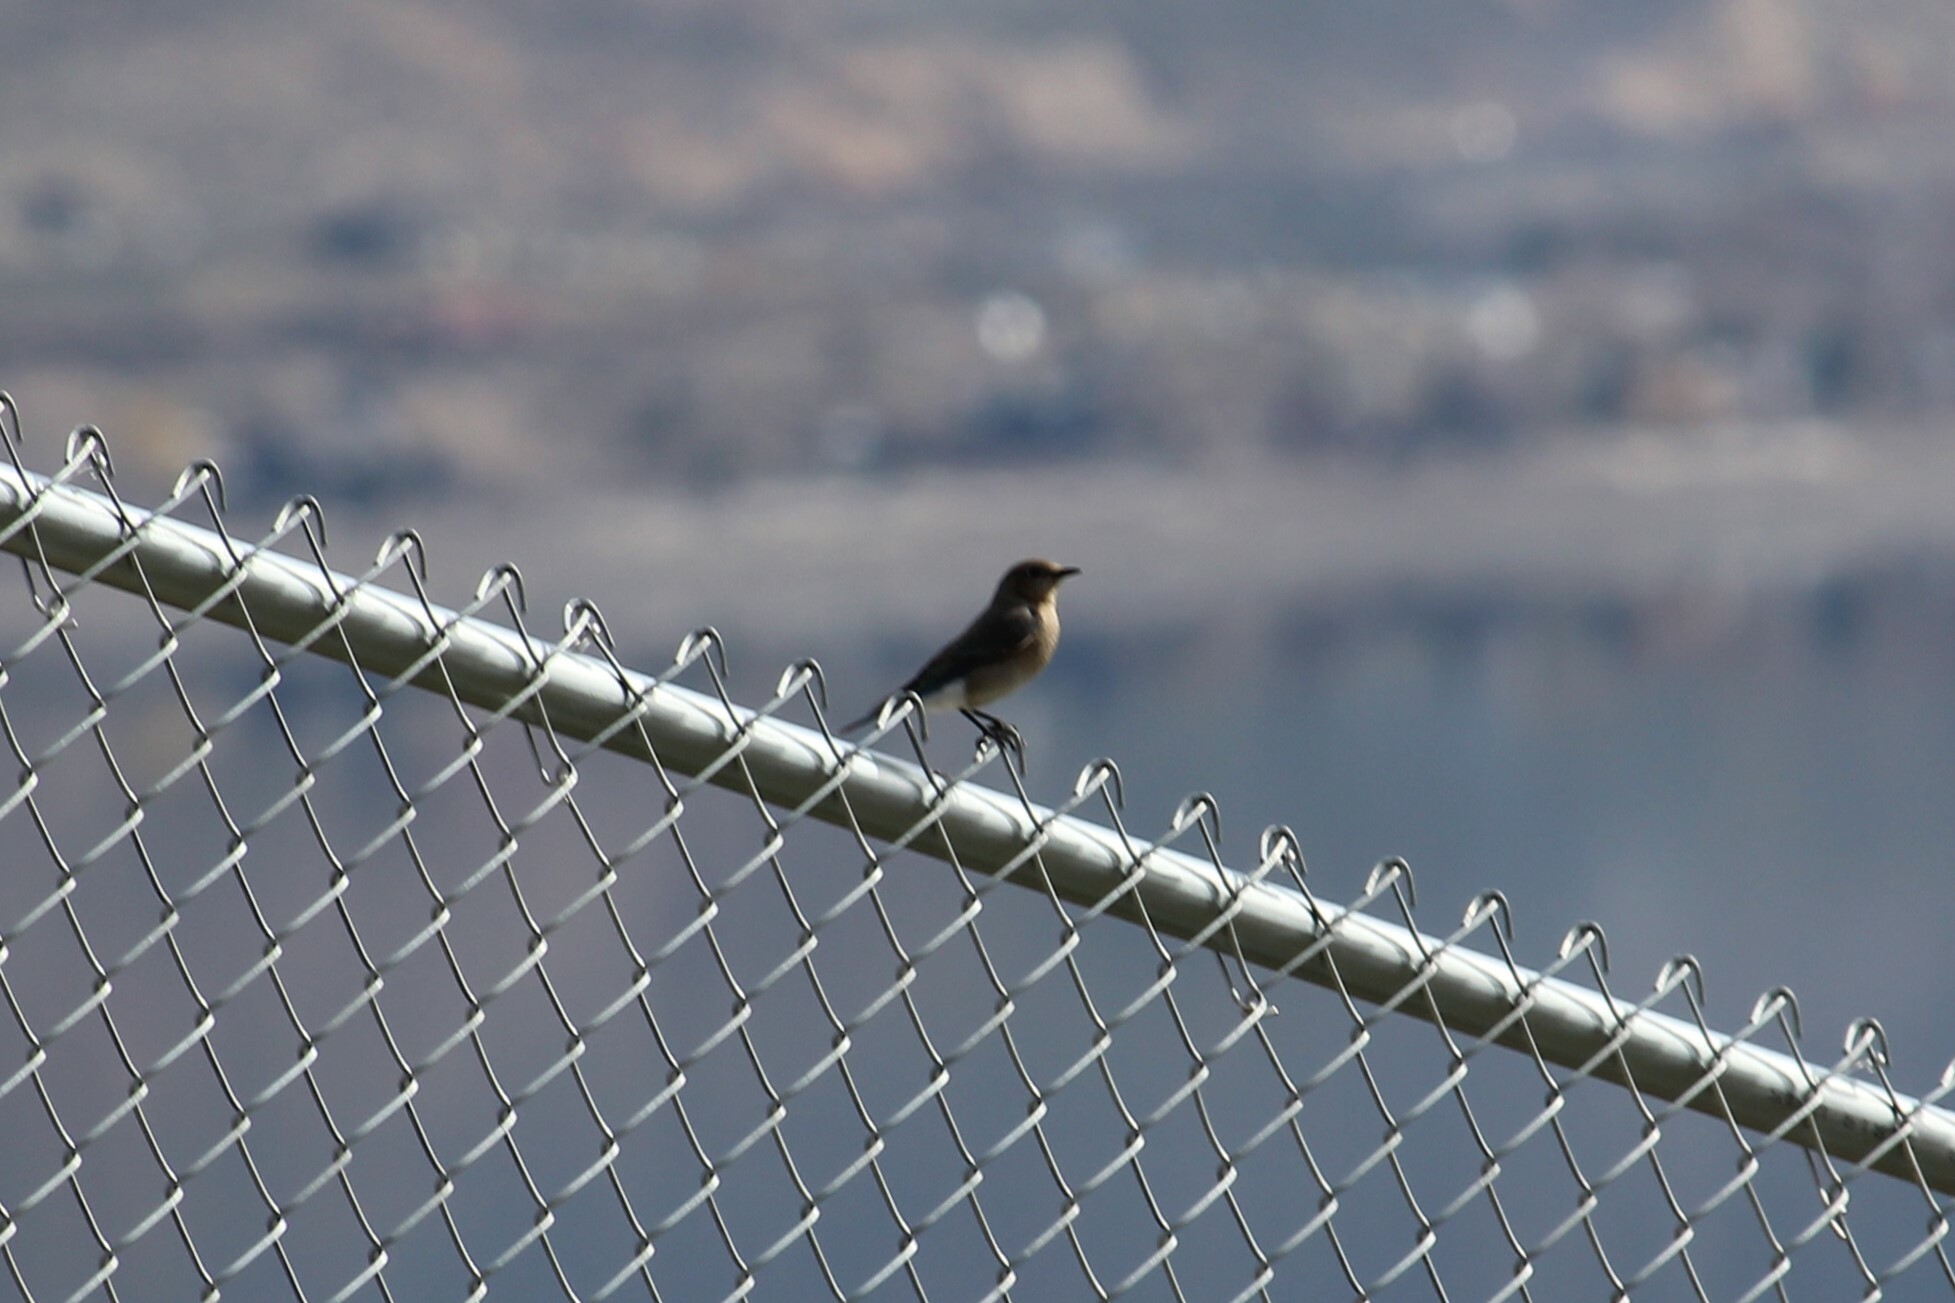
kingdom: Animalia
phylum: Chordata
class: Aves
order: Passeriformes
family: Turdidae
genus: Sialia
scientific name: Sialia currucoides
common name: Mountain bluebird
